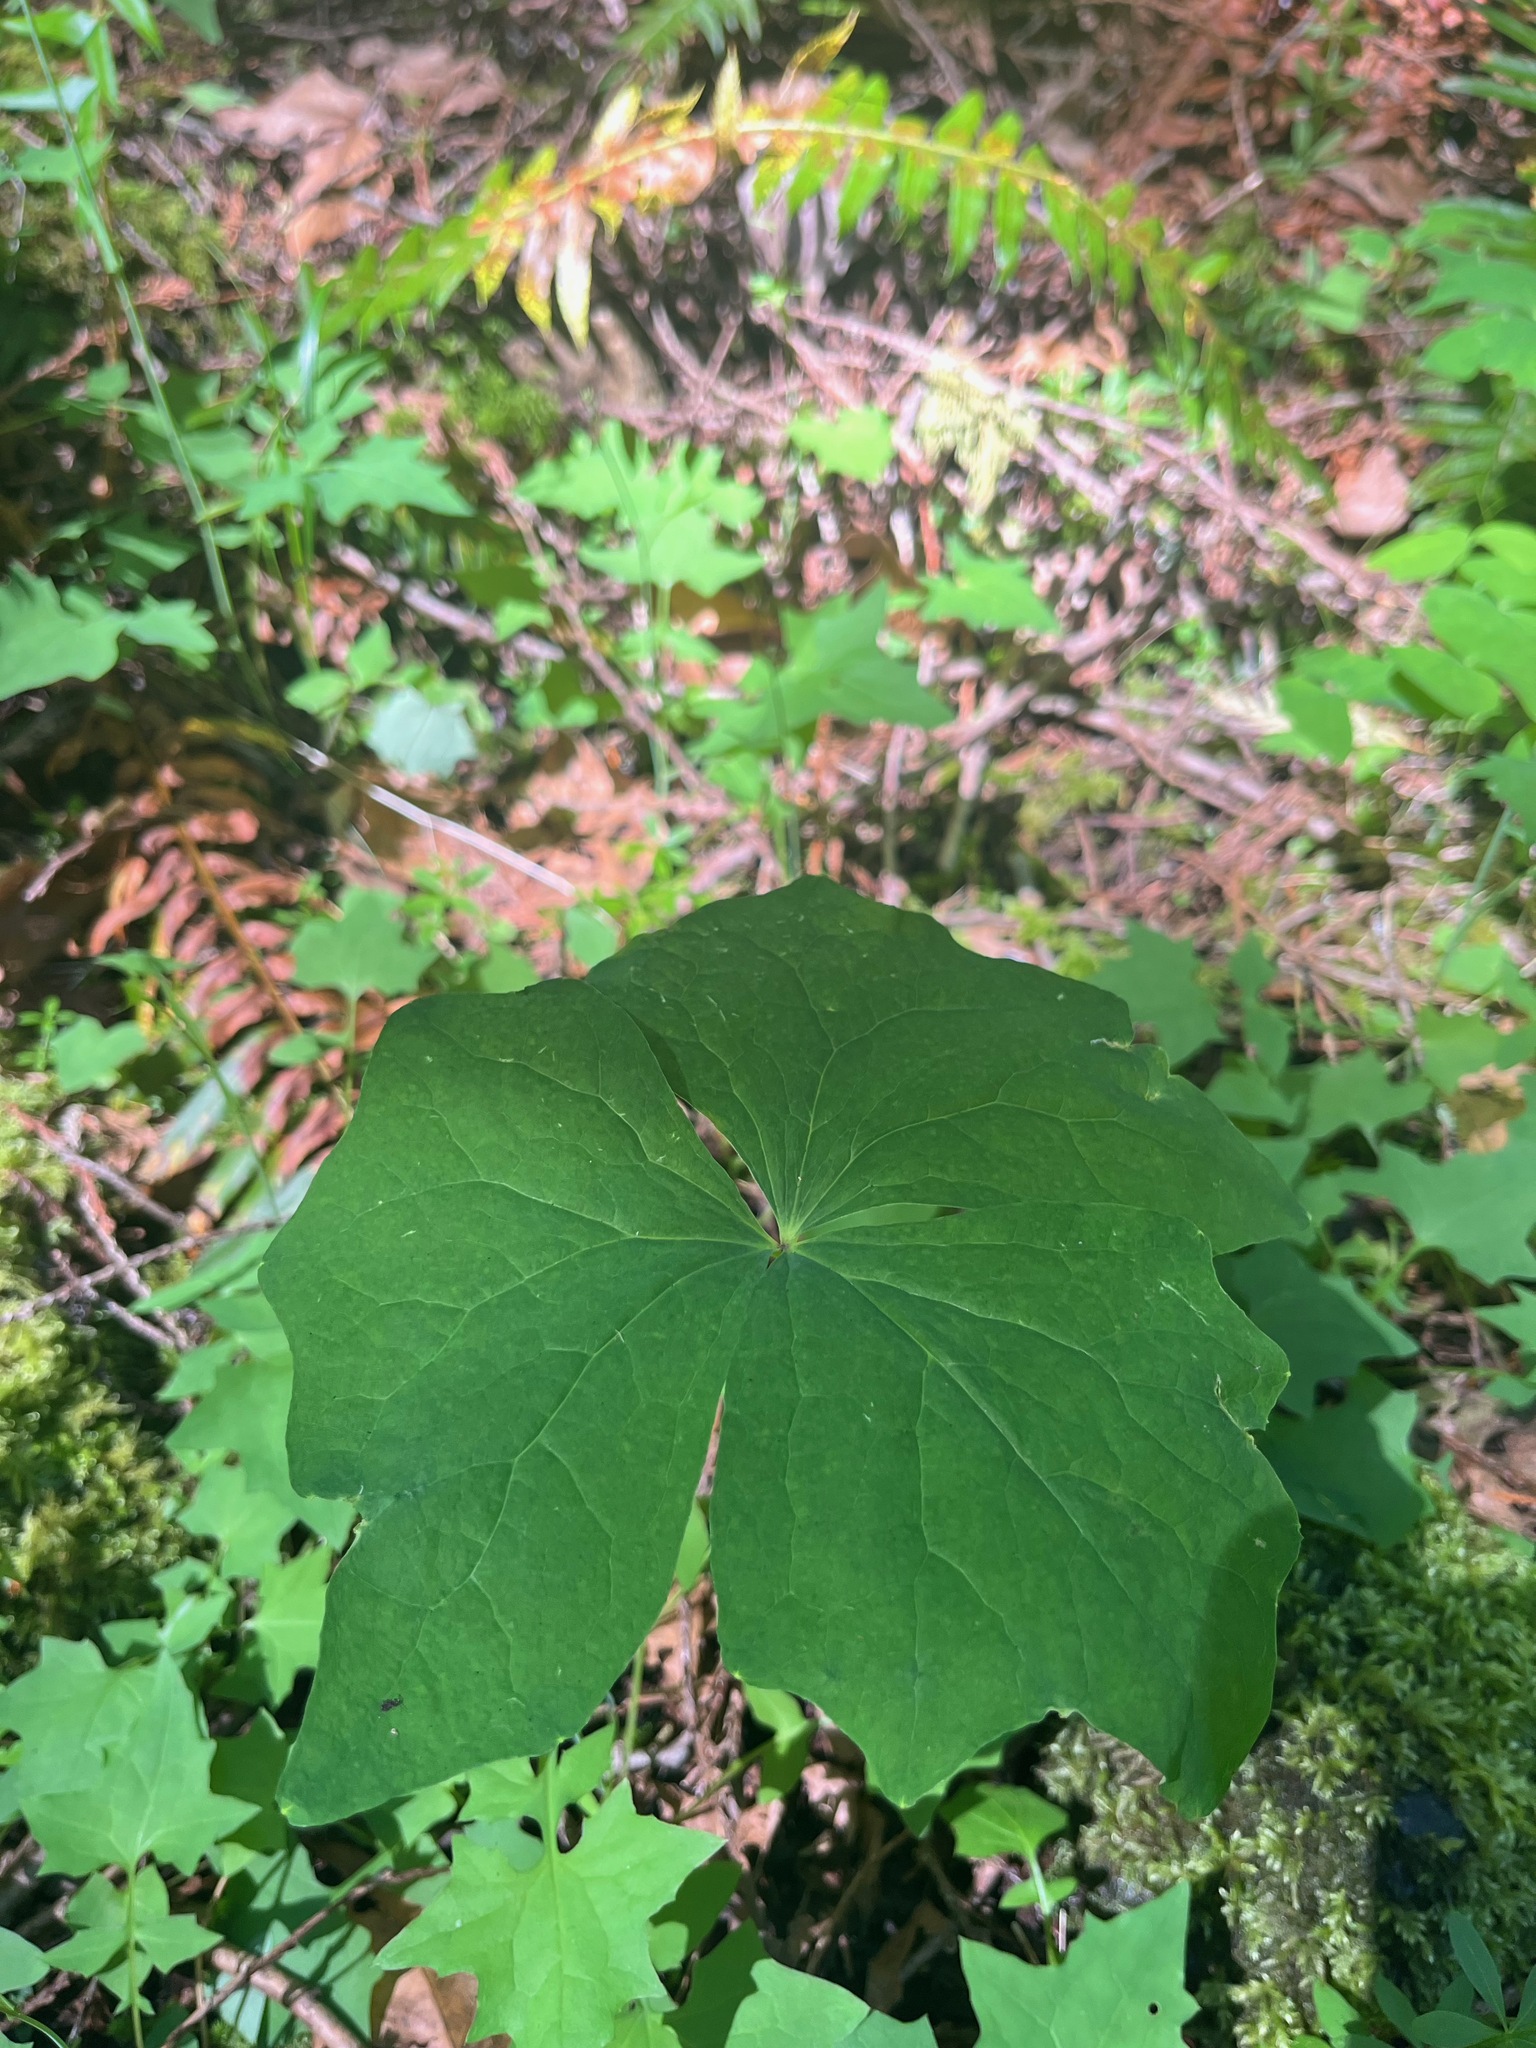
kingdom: Plantae
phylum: Tracheophyta
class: Magnoliopsida
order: Ranunculales
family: Berberidaceae
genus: Achlys
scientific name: Achlys triphylla
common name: Vanilla-leaf
